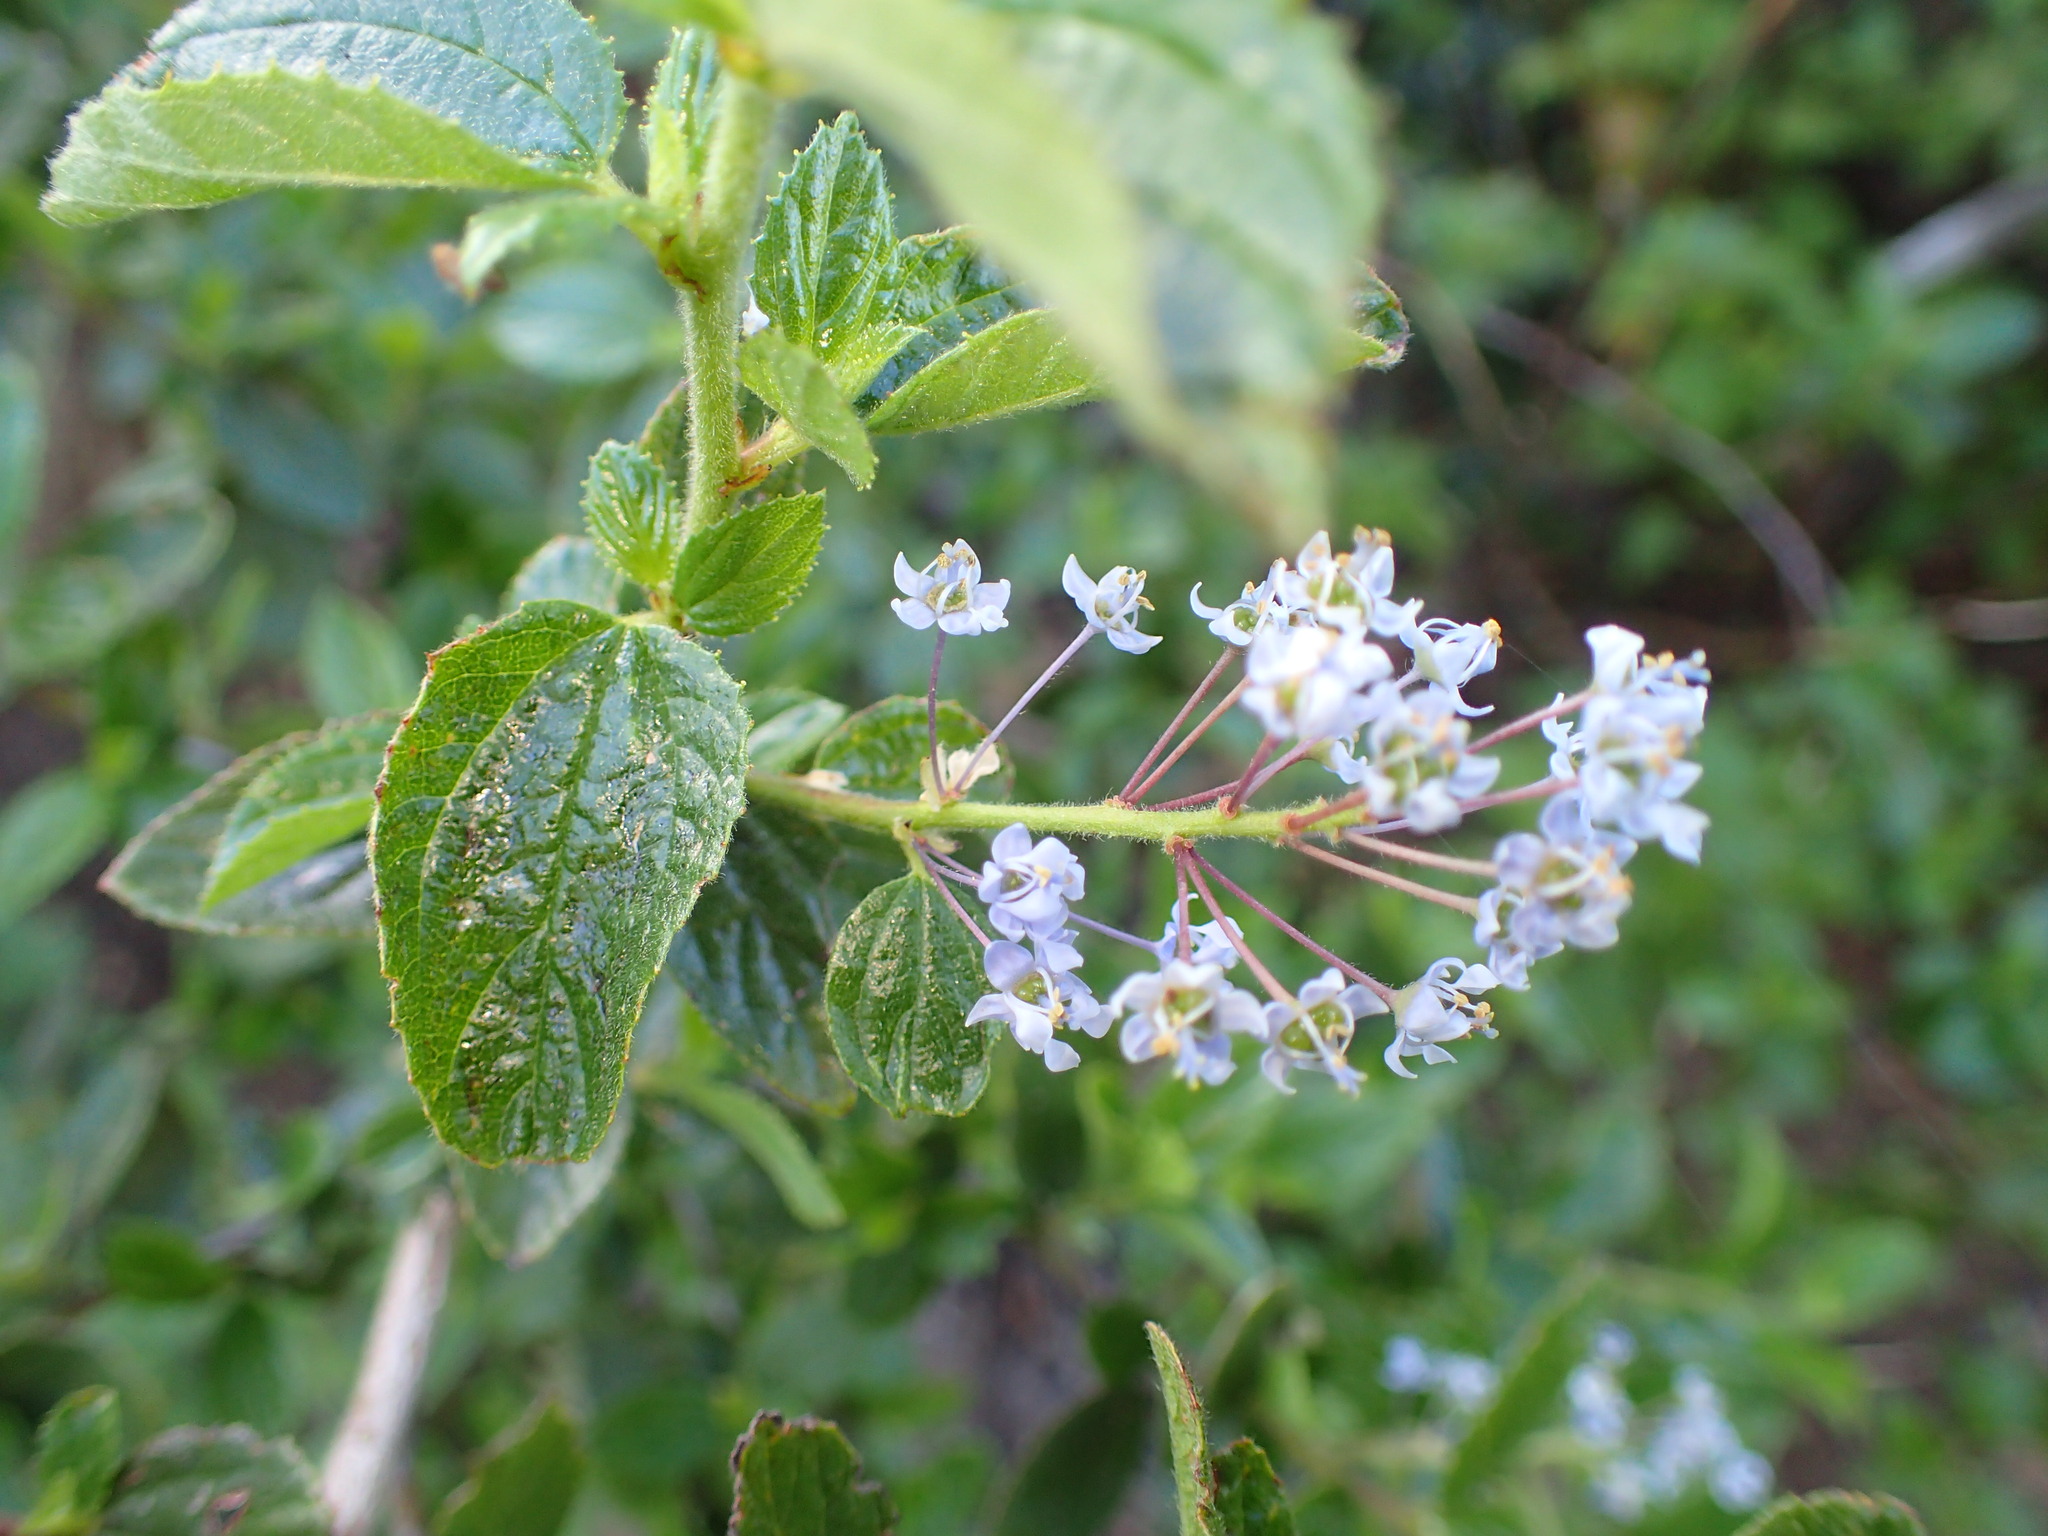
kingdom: Plantae
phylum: Tracheophyta
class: Magnoliopsida
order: Rosales
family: Rhamnaceae
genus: Ceanothus
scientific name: Ceanothus oliganthus
